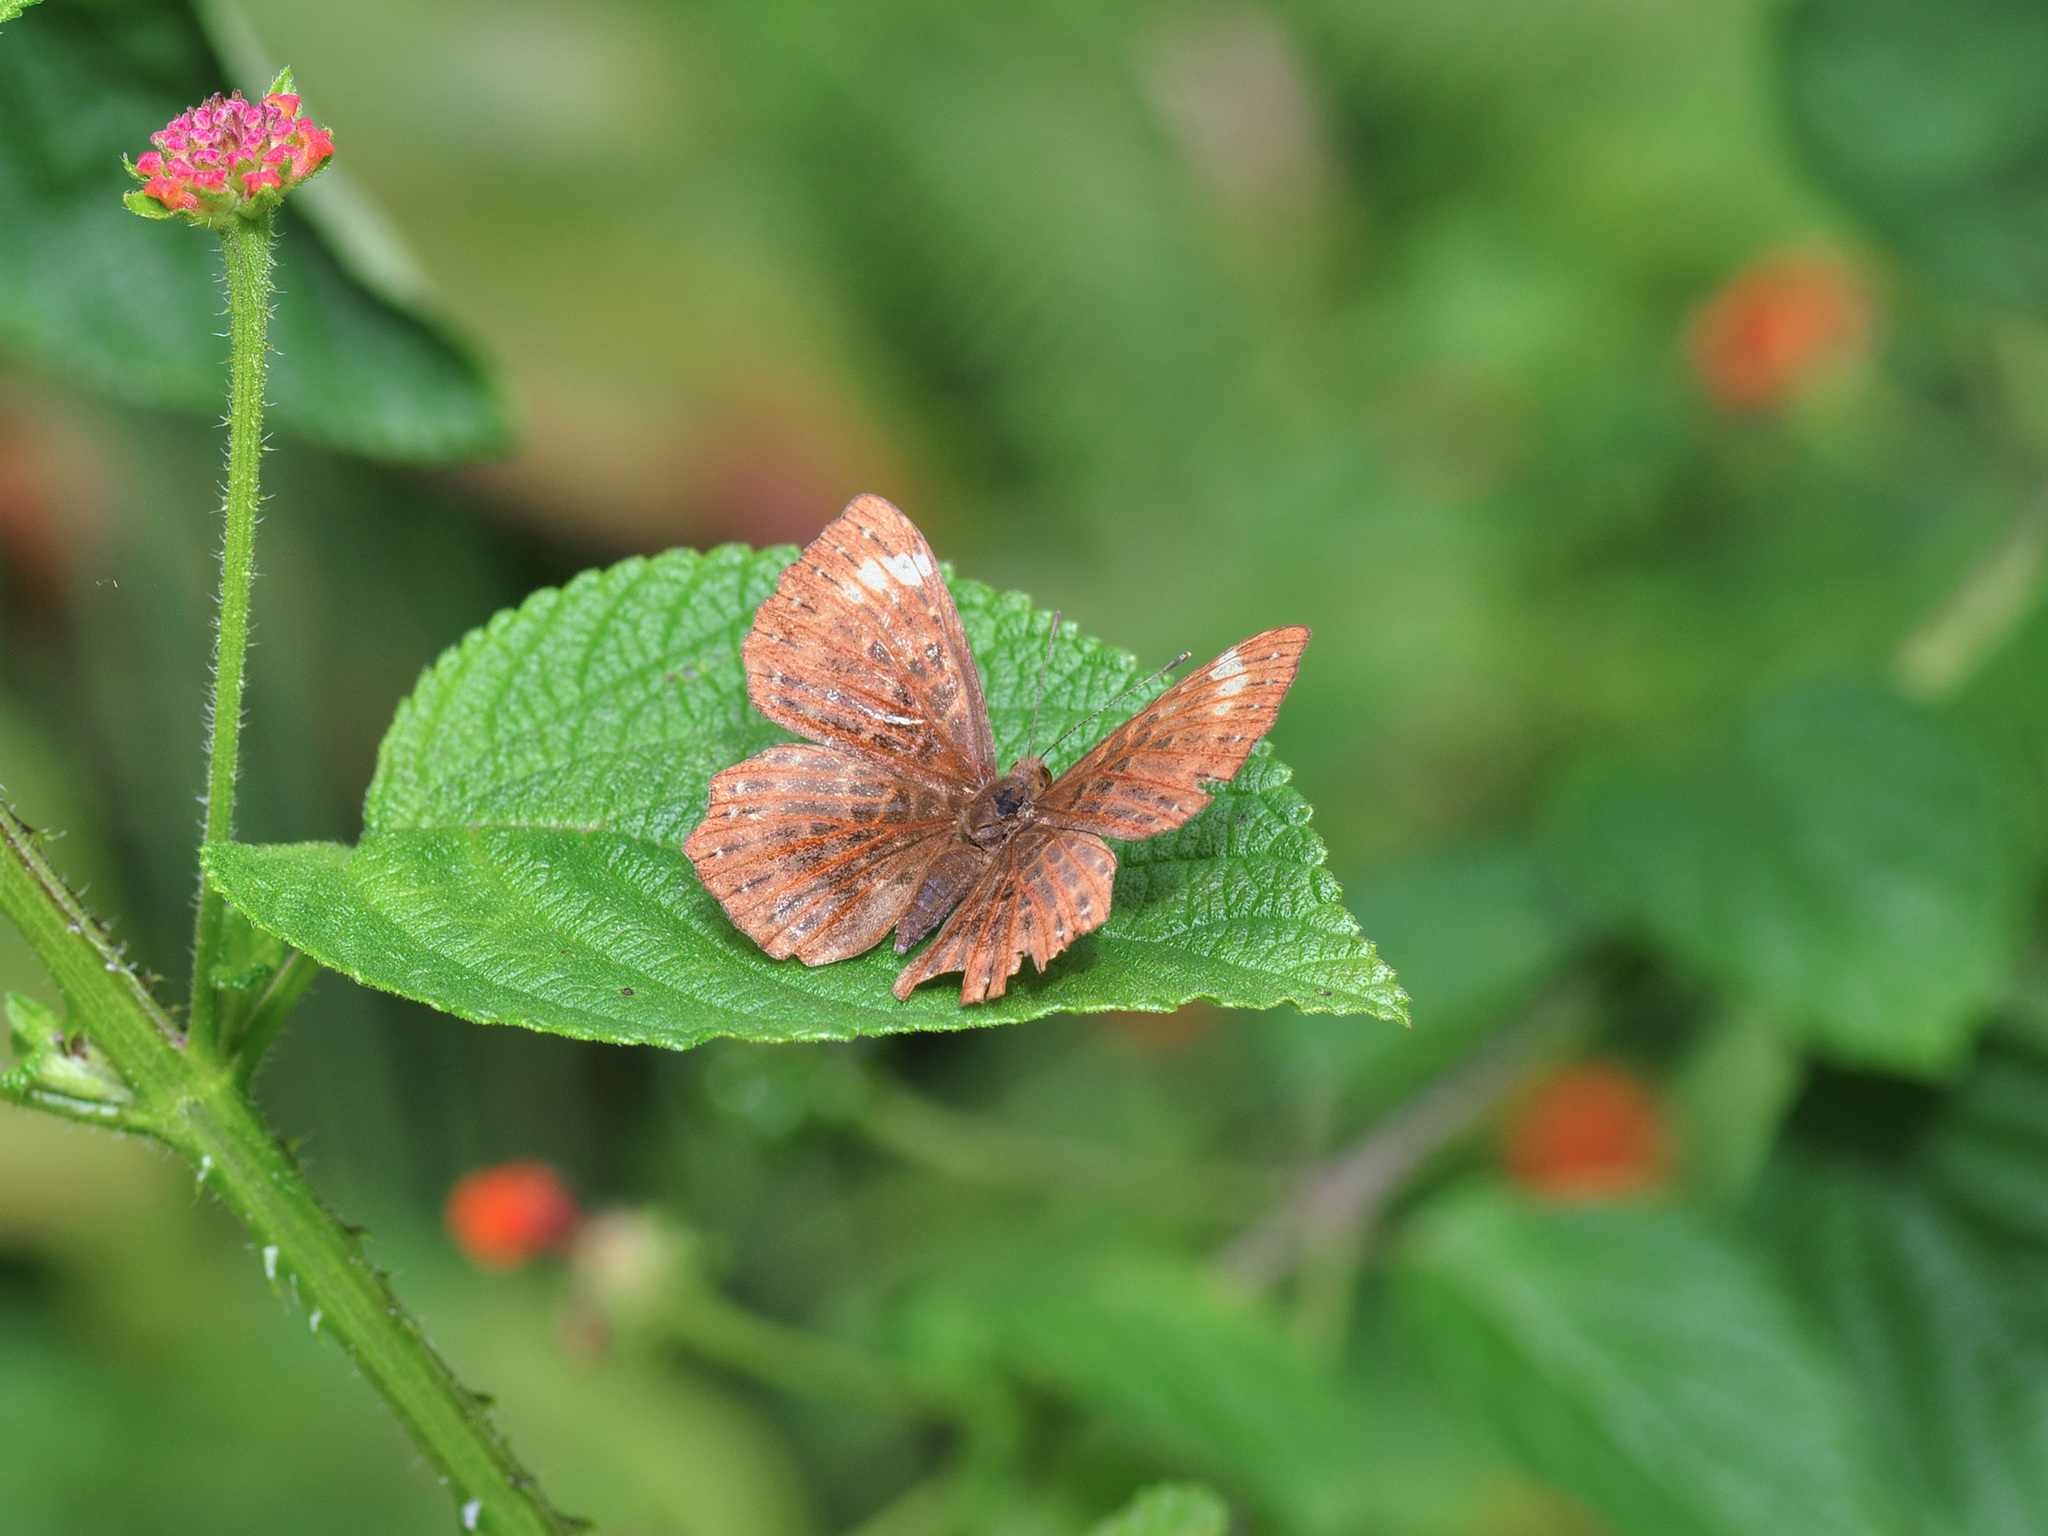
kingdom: Animalia
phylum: Arthropoda
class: Insecta
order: Lepidoptera
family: Riodinidae
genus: Zemeros
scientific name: Zemeros flegyas
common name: Punchinello
